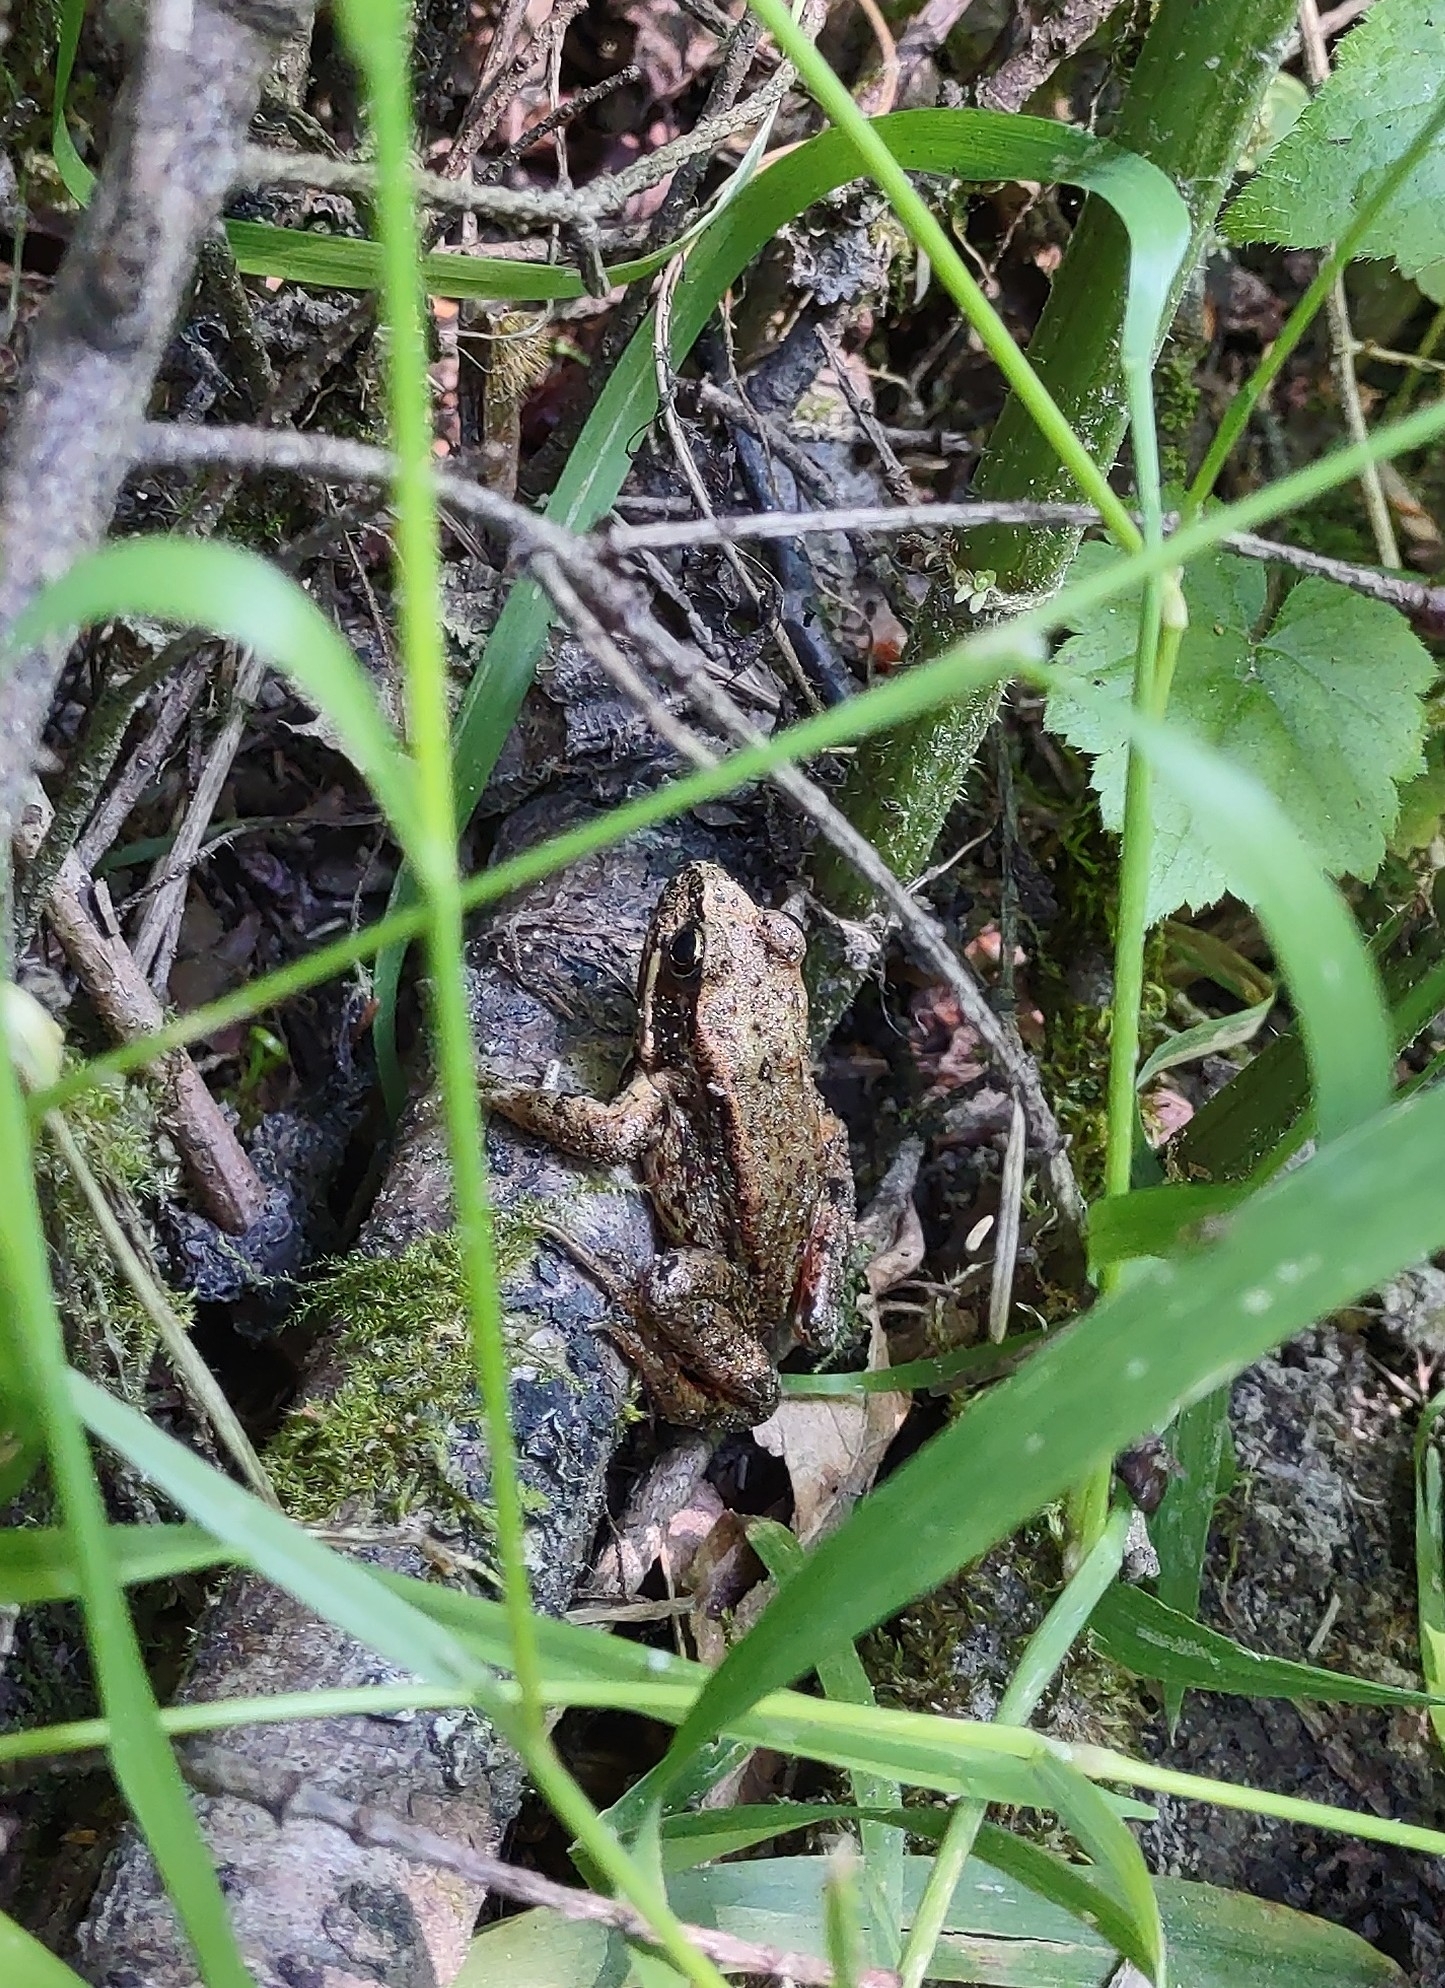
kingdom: Animalia
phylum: Chordata
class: Amphibia
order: Anura
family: Ranidae
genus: Rana
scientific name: Rana aurora
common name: Red-legged frog
